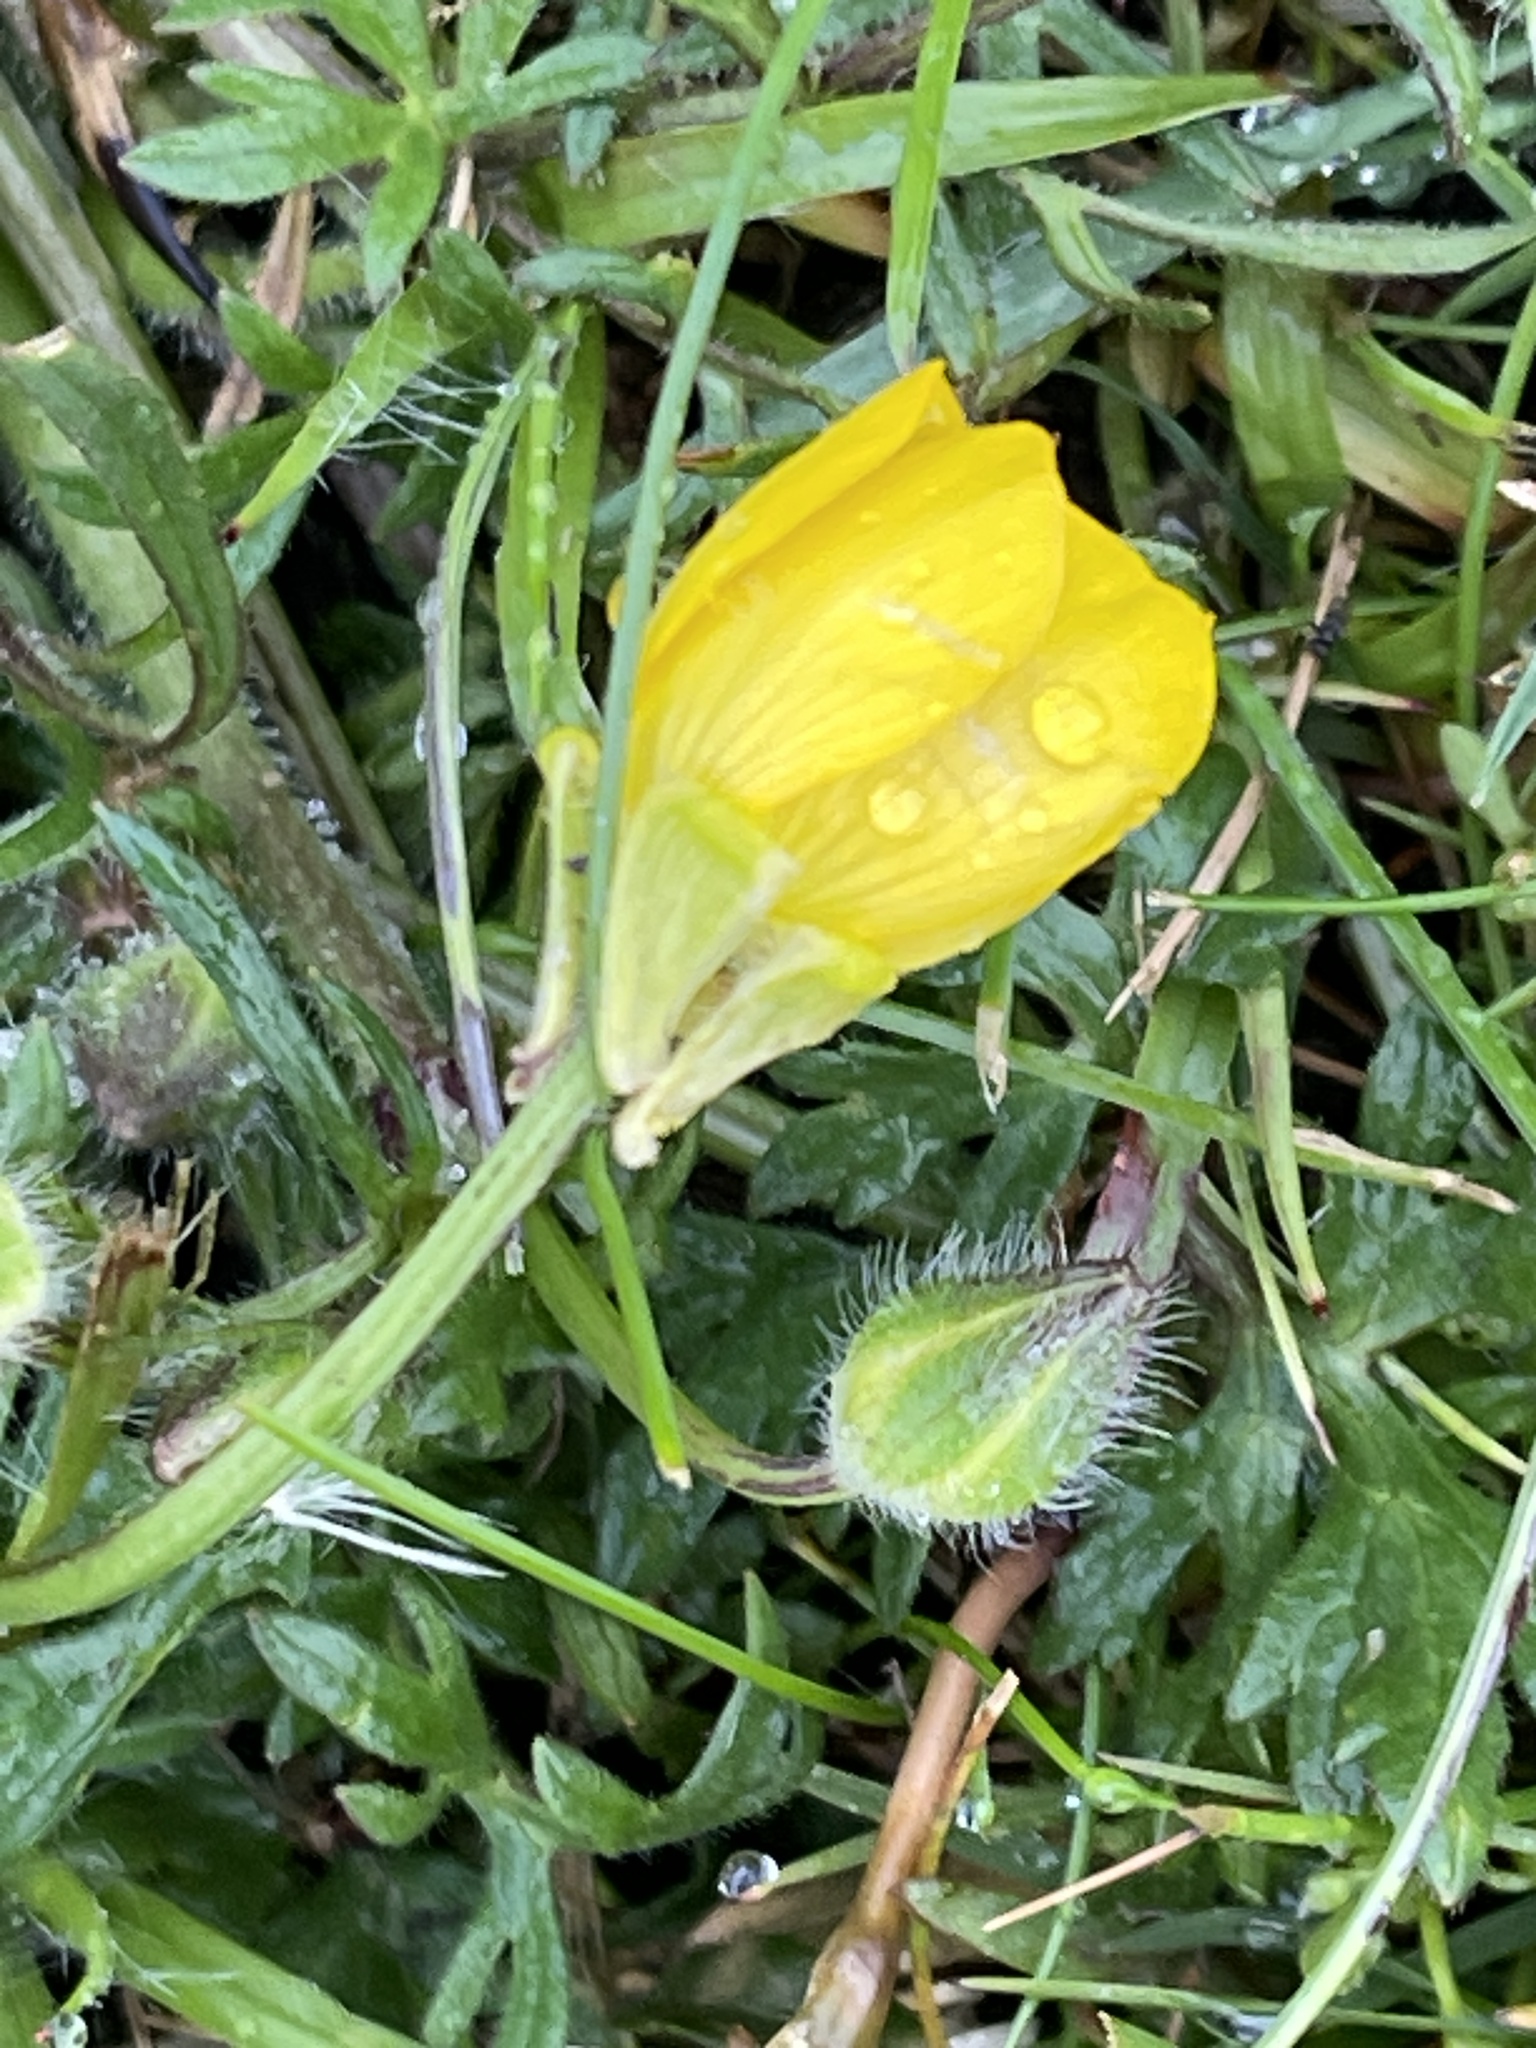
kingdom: Plantae
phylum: Tracheophyta
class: Magnoliopsida
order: Ranunculales
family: Ranunculaceae
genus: Ranunculus
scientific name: Ranunculus bulbosus
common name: Bulbous buttercup
